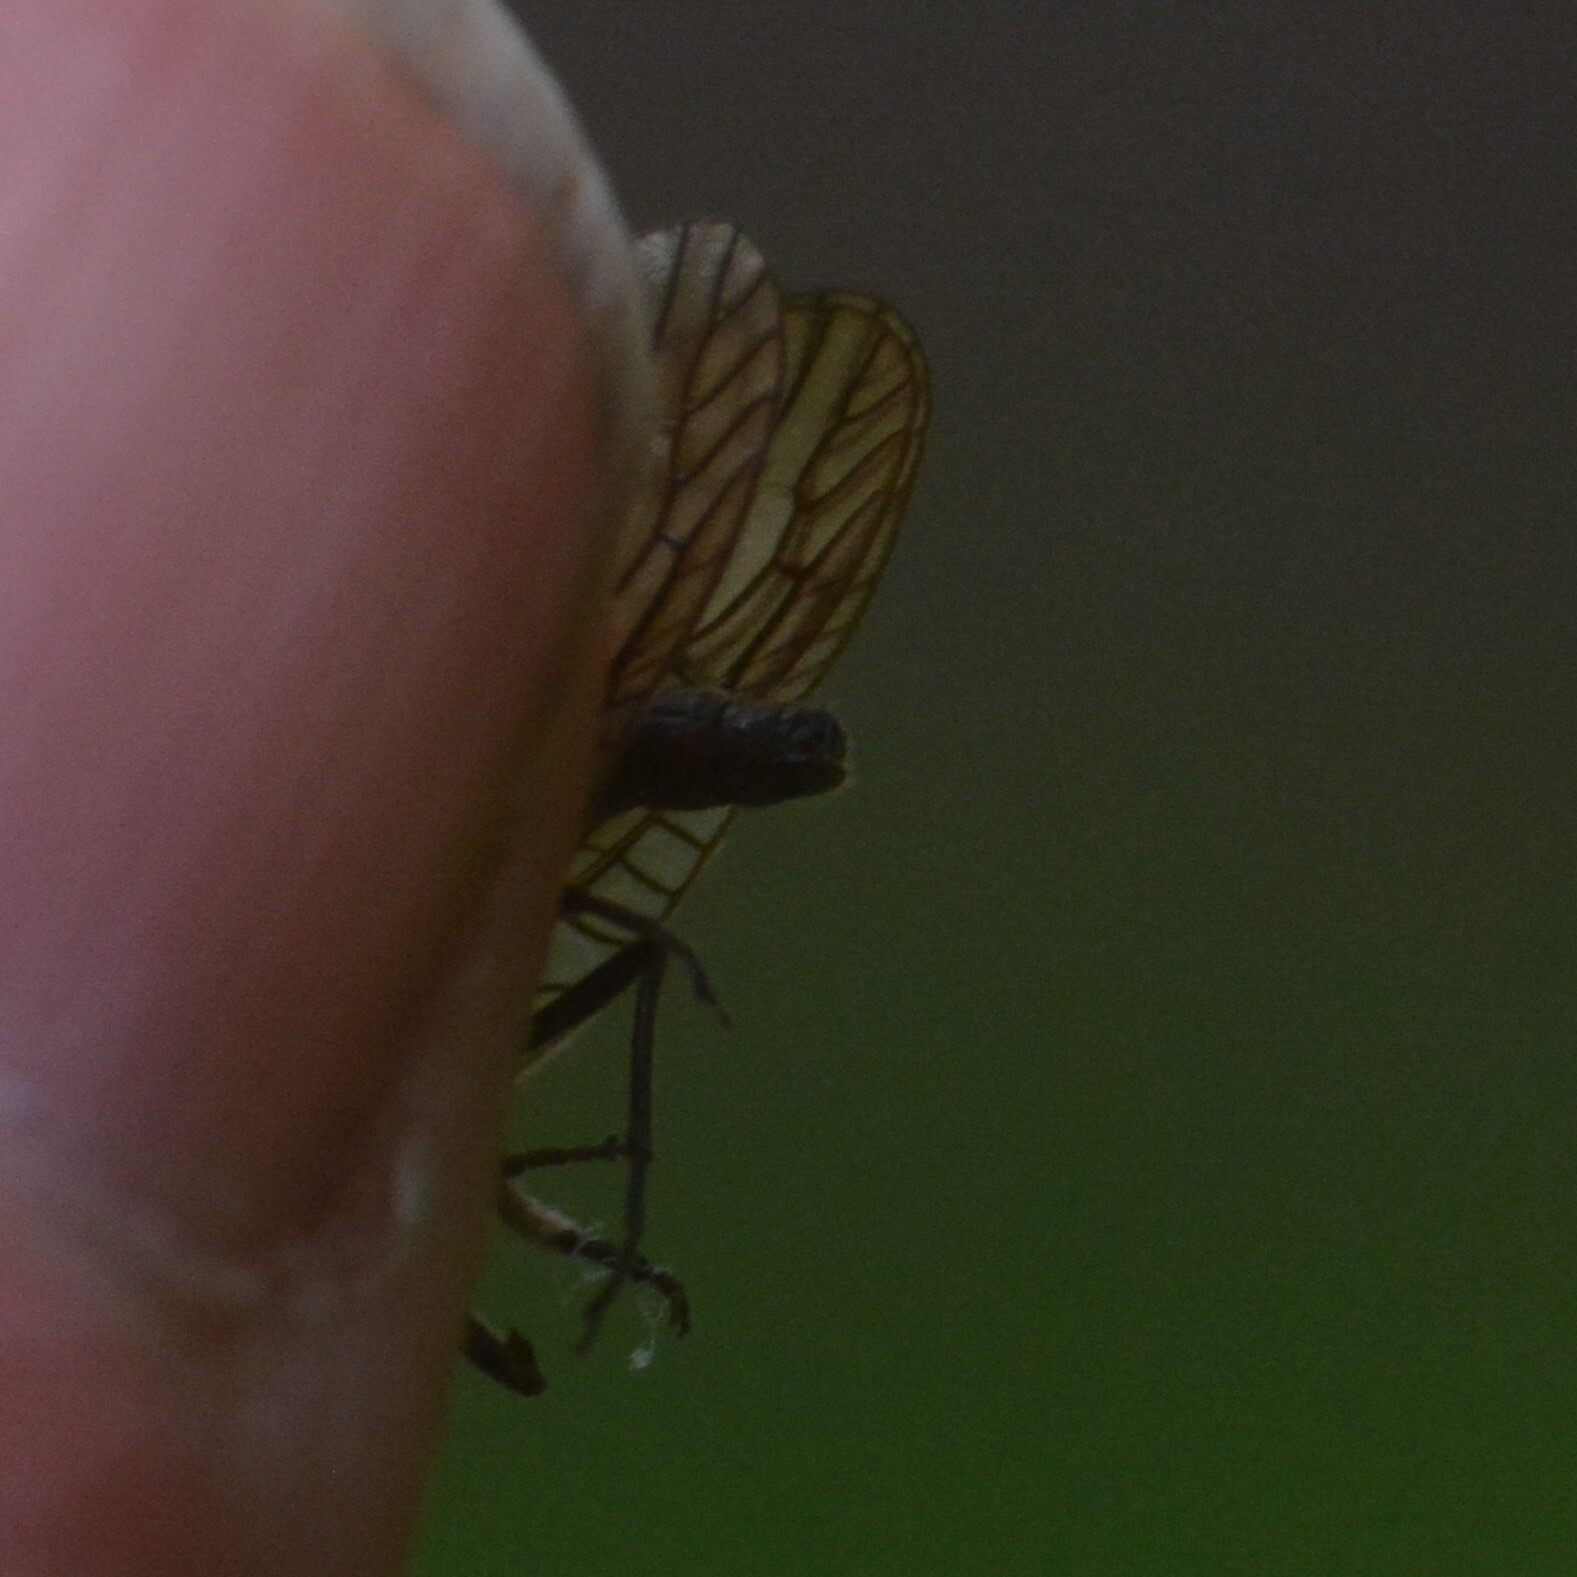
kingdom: Animalia
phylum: Arthropoda
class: Insecta
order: Megaloptera
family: Sialidae
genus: Sialis
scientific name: Sialis lutaria
